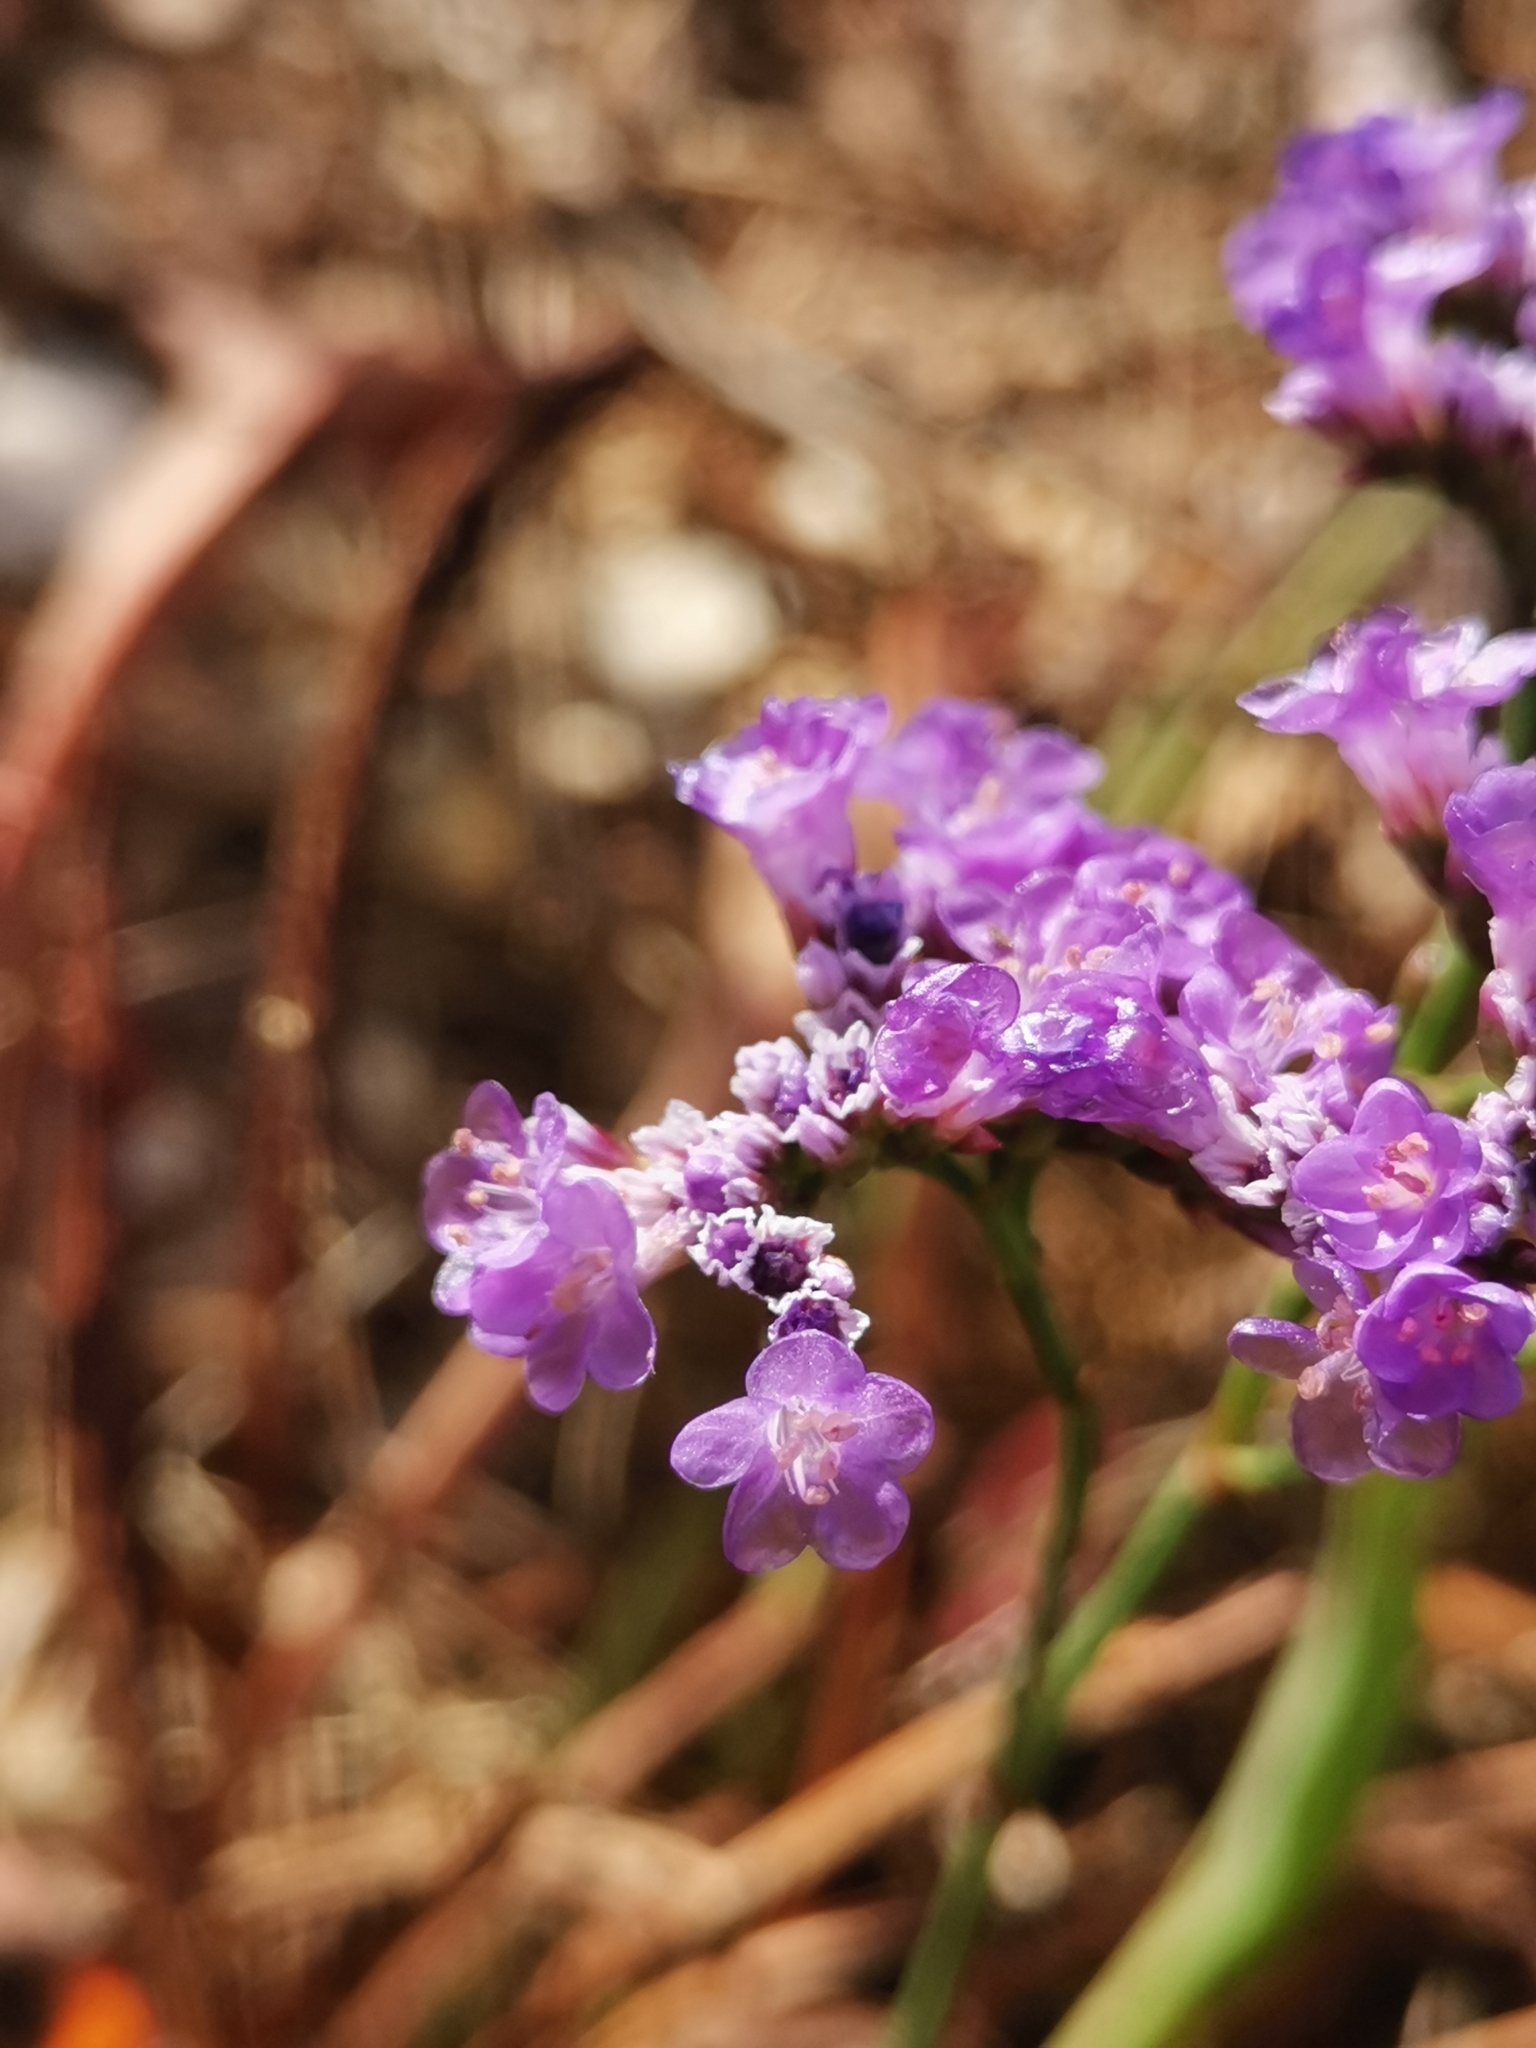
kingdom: Plantae
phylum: Tracheophyta
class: Magnoliopsida
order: Caryophyllales
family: Plumbaginaceae
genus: Limonium
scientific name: Limonium narbonense
